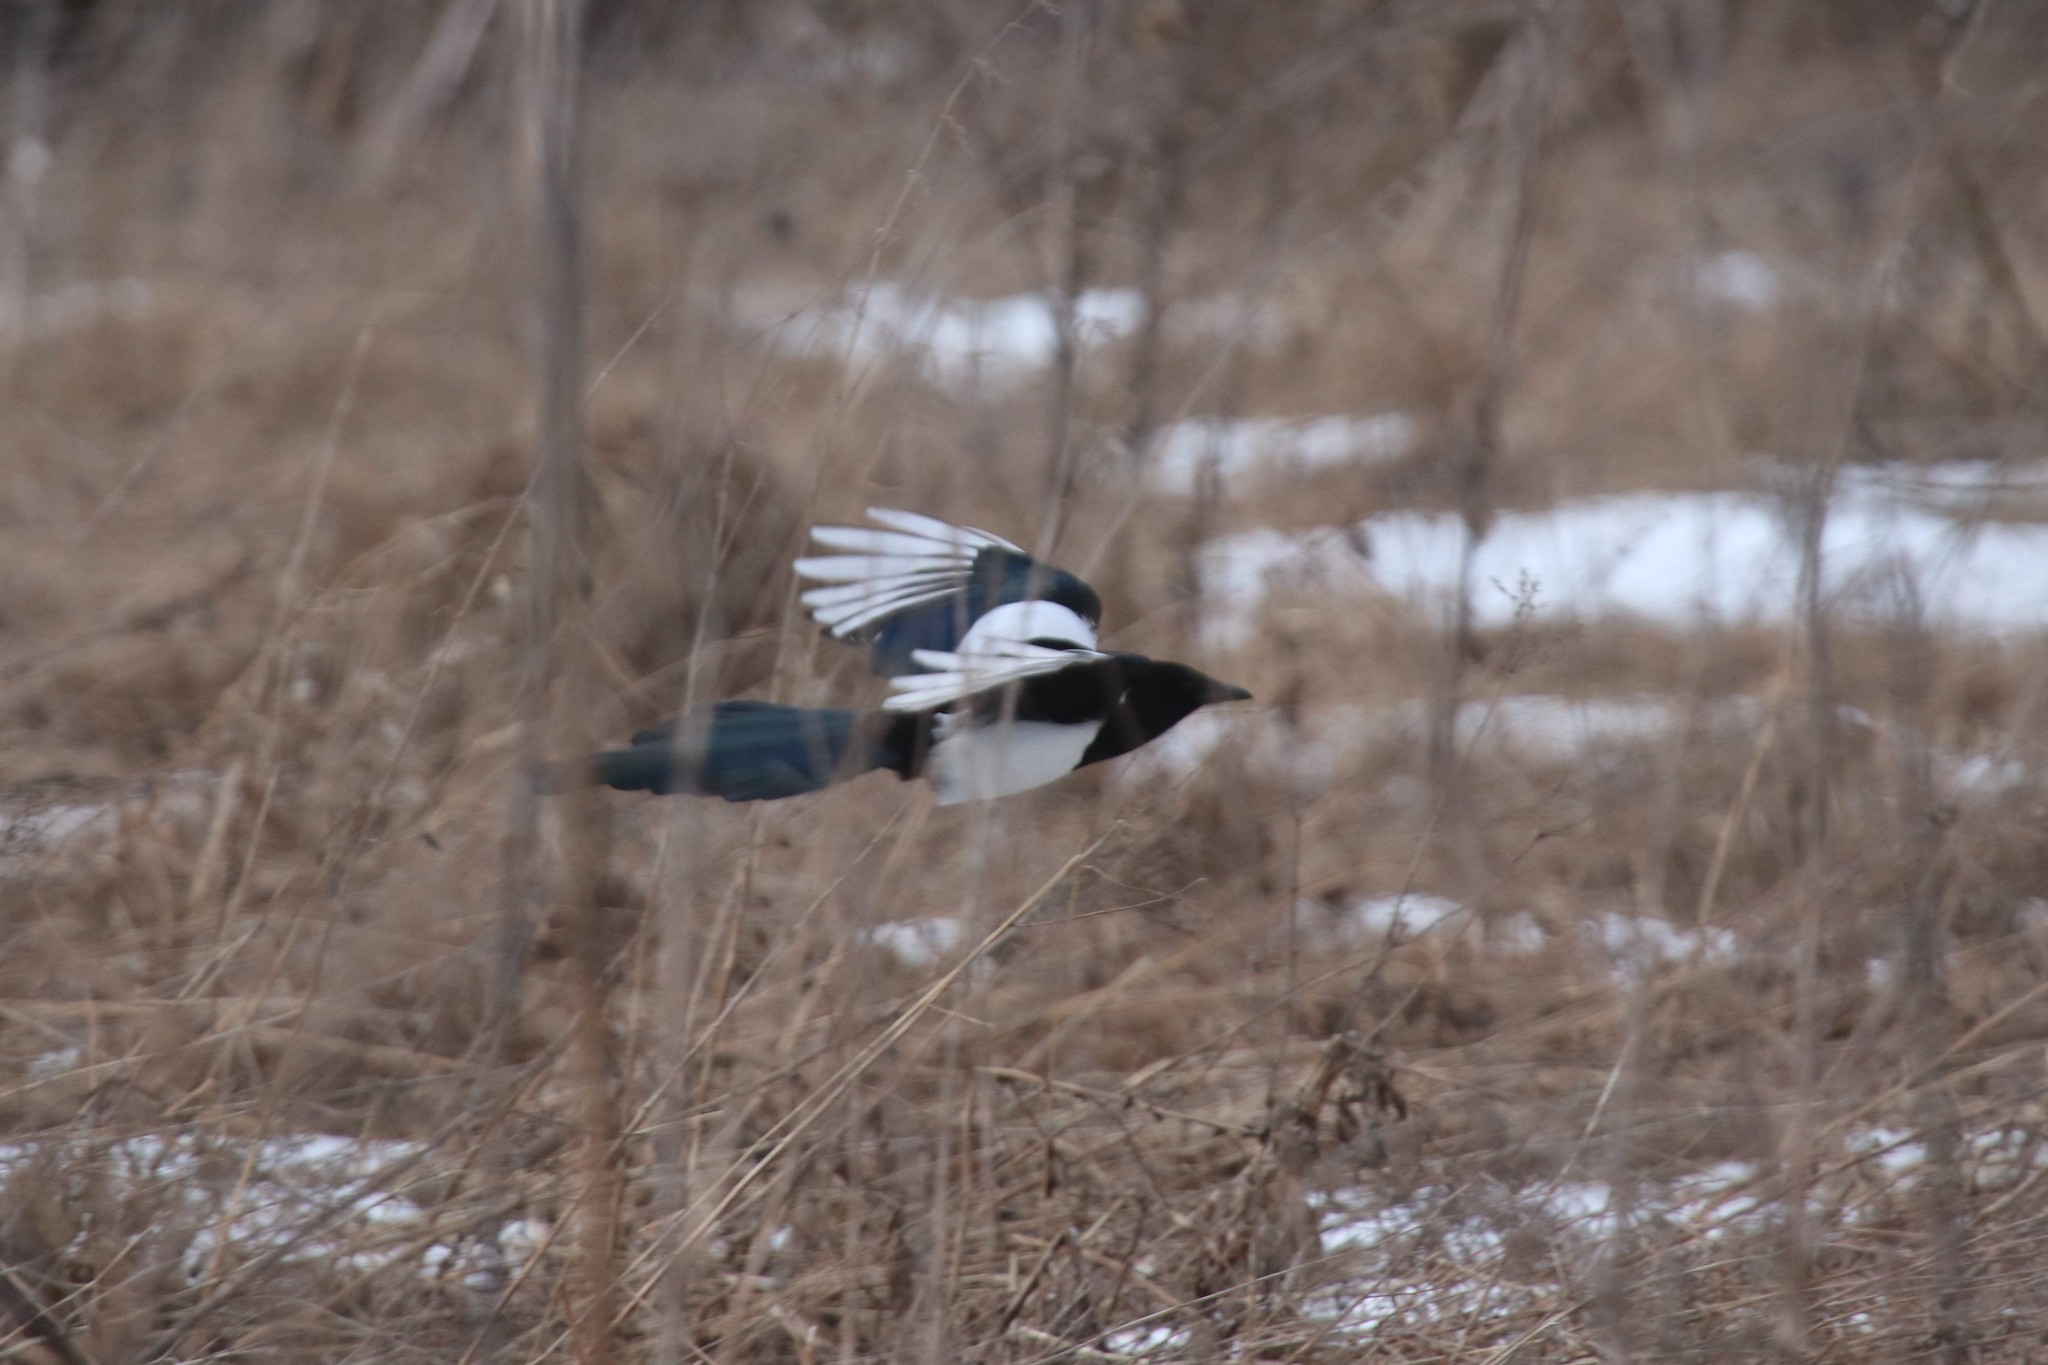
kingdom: Animalia
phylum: Chordata
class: Aves
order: Passeriformes
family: Corvidae
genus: Pica
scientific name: Pica pica
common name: Eurasian magpie
